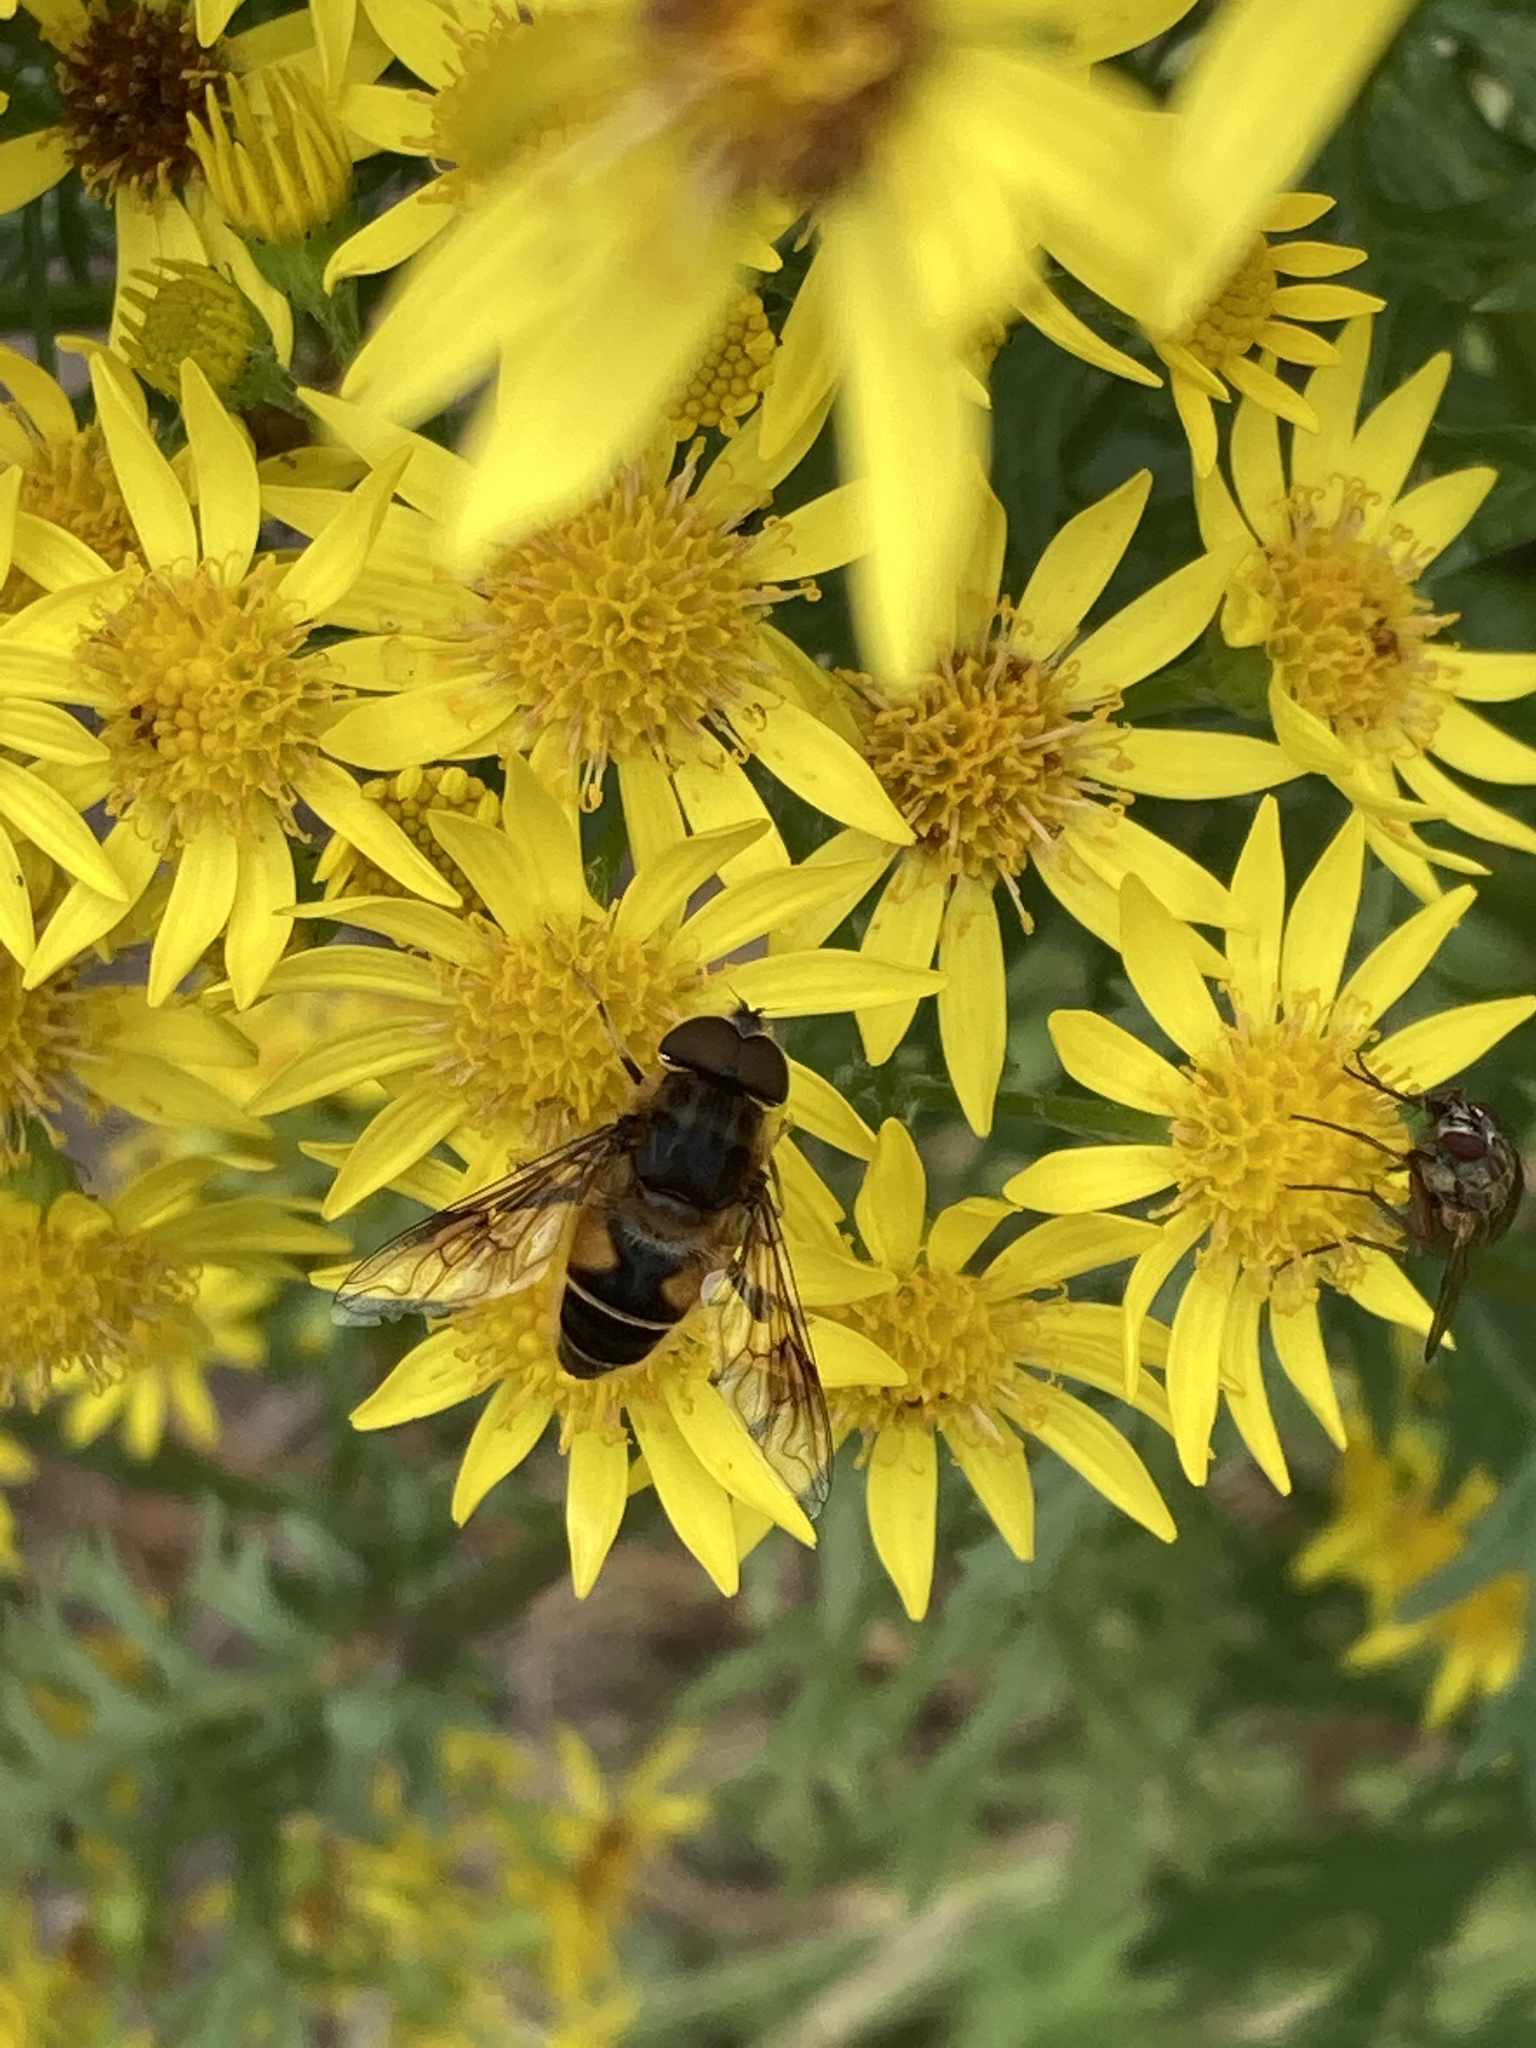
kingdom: Animalia
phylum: Arthropoda
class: Insecta
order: Diptera
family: Syrphidae
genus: Eristalis
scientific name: Eristalis pertinax
